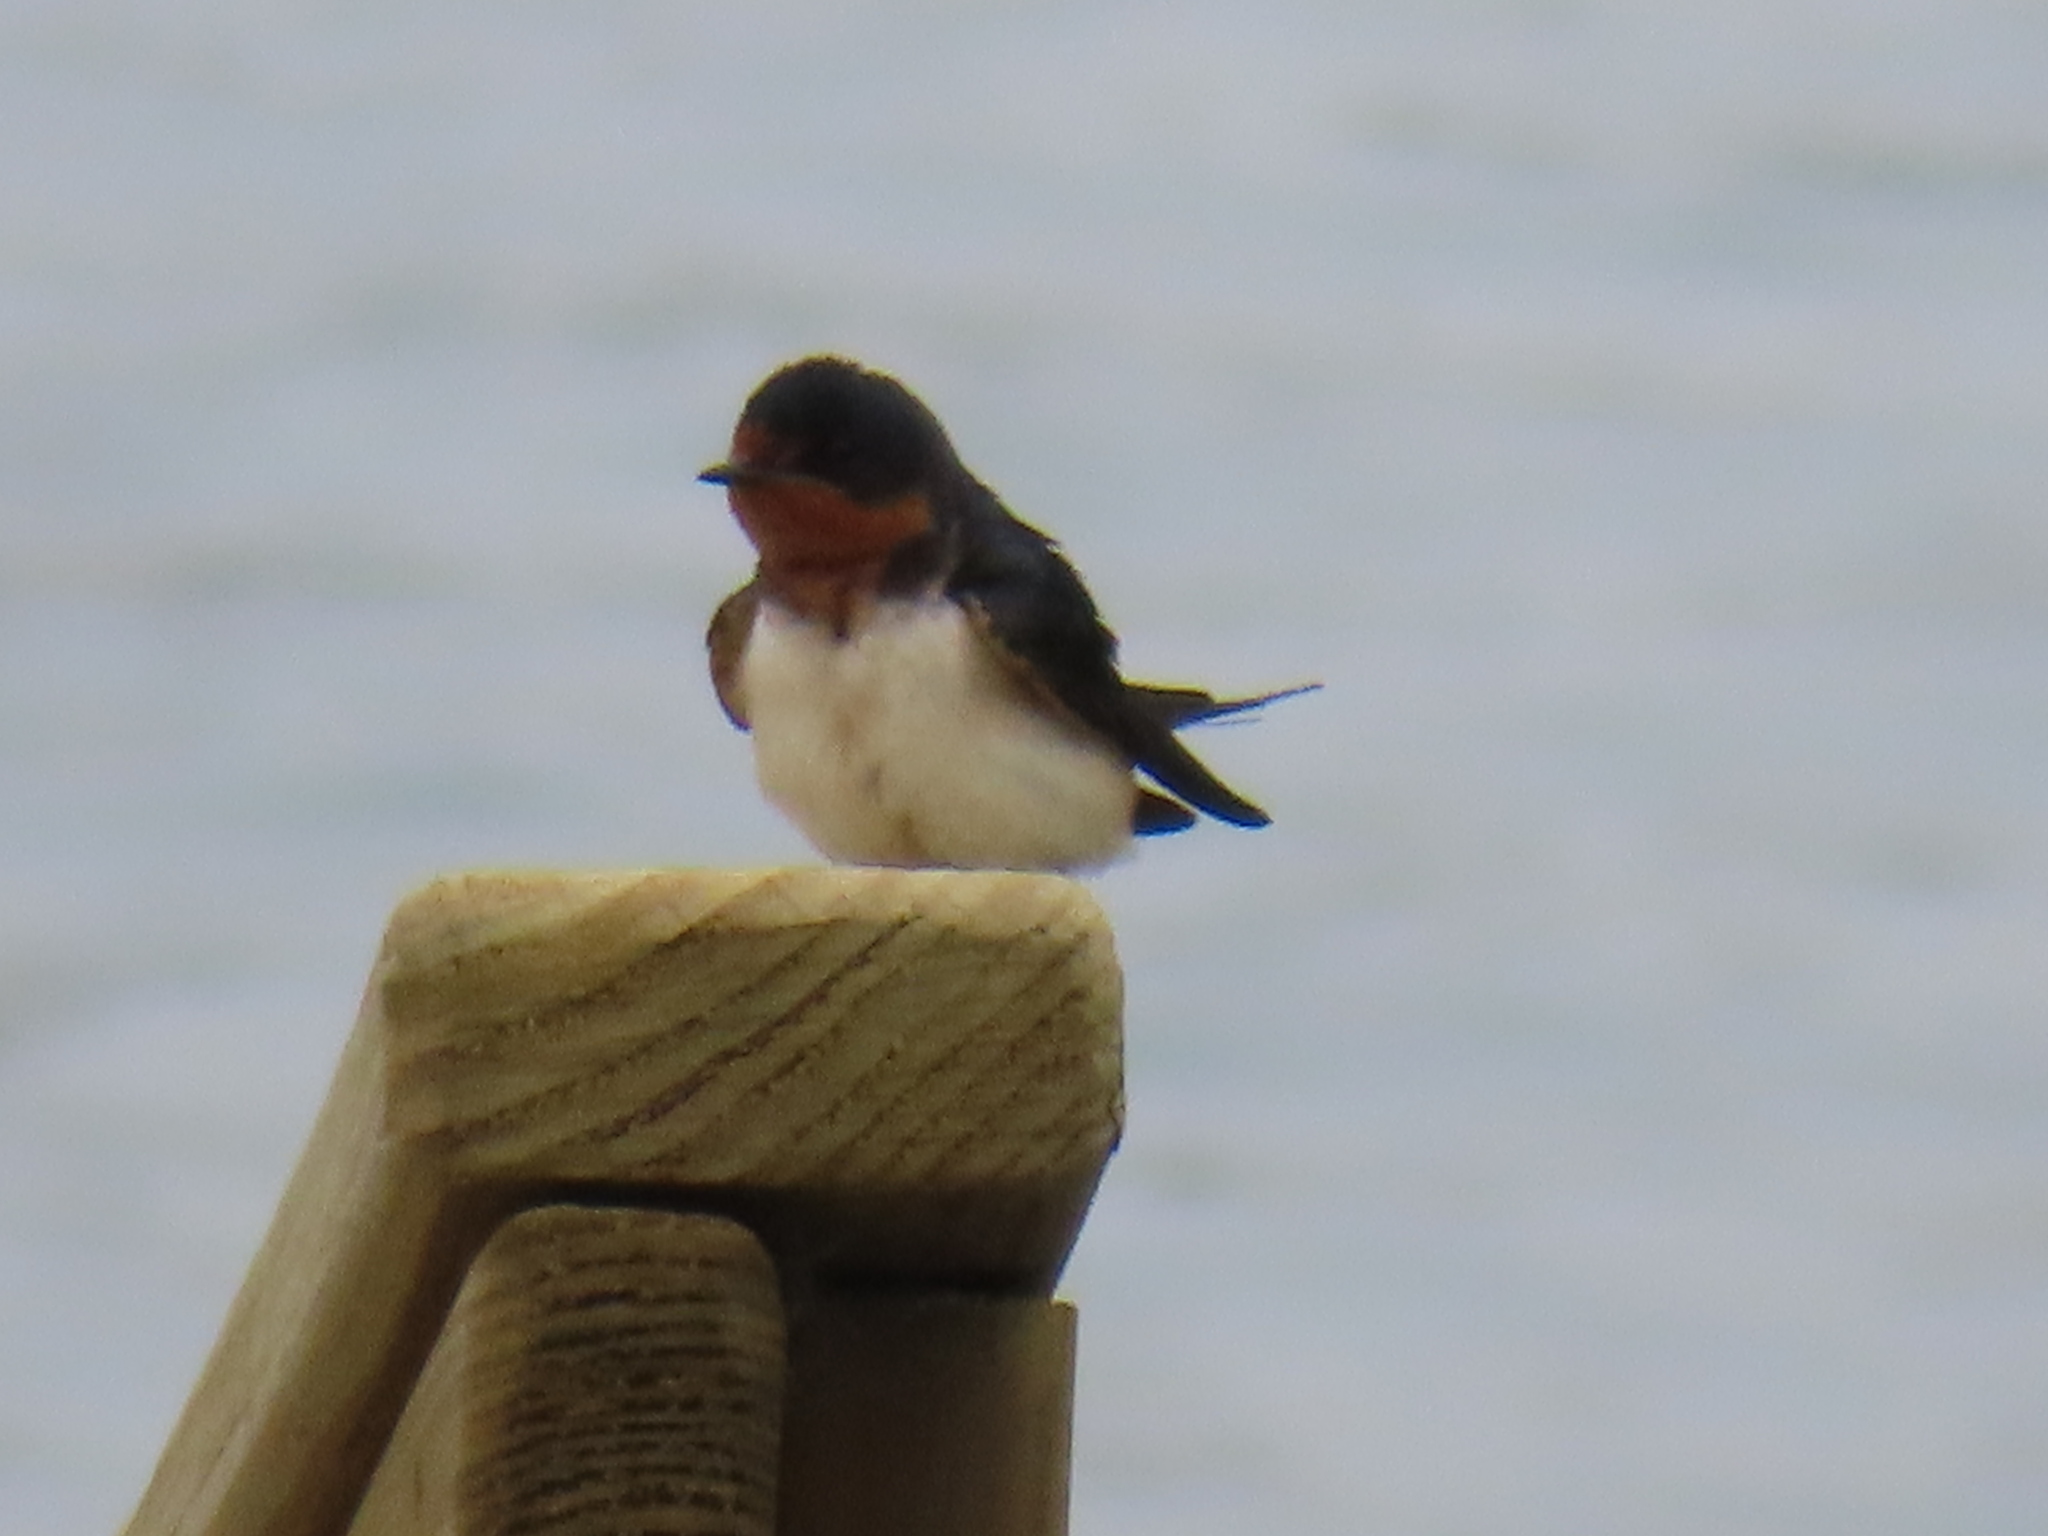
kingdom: Animalia
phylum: Chordata
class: Aves
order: Passeriformes
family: Hirundinidae
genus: Hirundo
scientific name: Hirundo rustica
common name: Barn swallow
